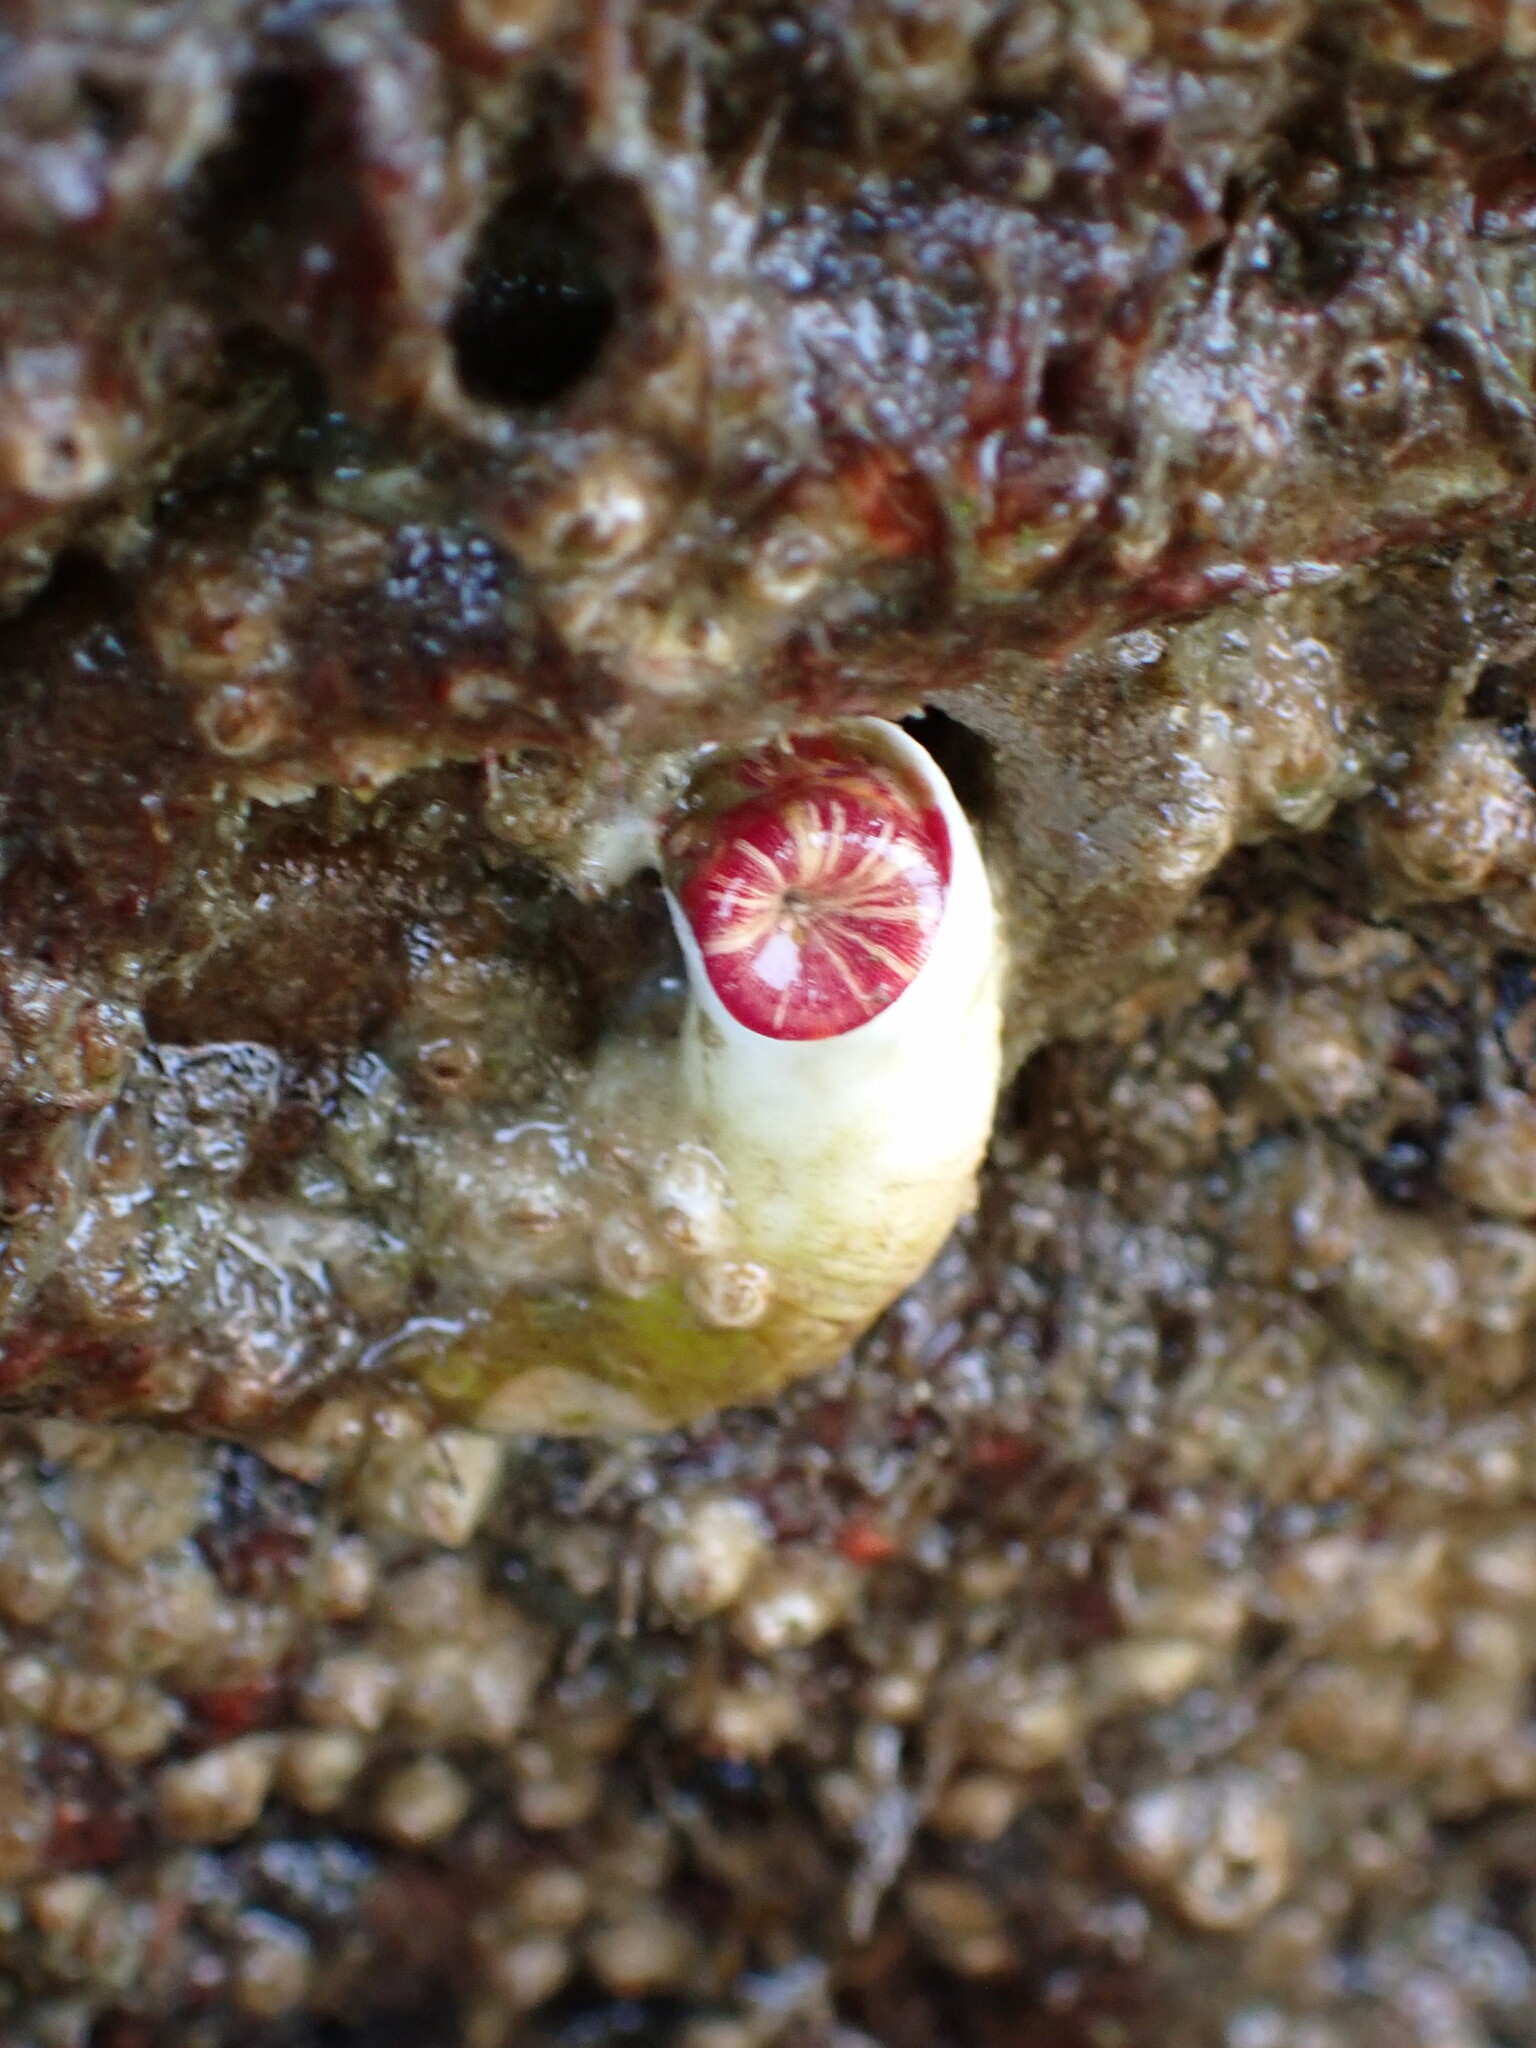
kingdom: Animalia
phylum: Annelida
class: Polychaeta
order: Sabellida
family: Serpulidae
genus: Serpula
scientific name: Serpula columbiana
